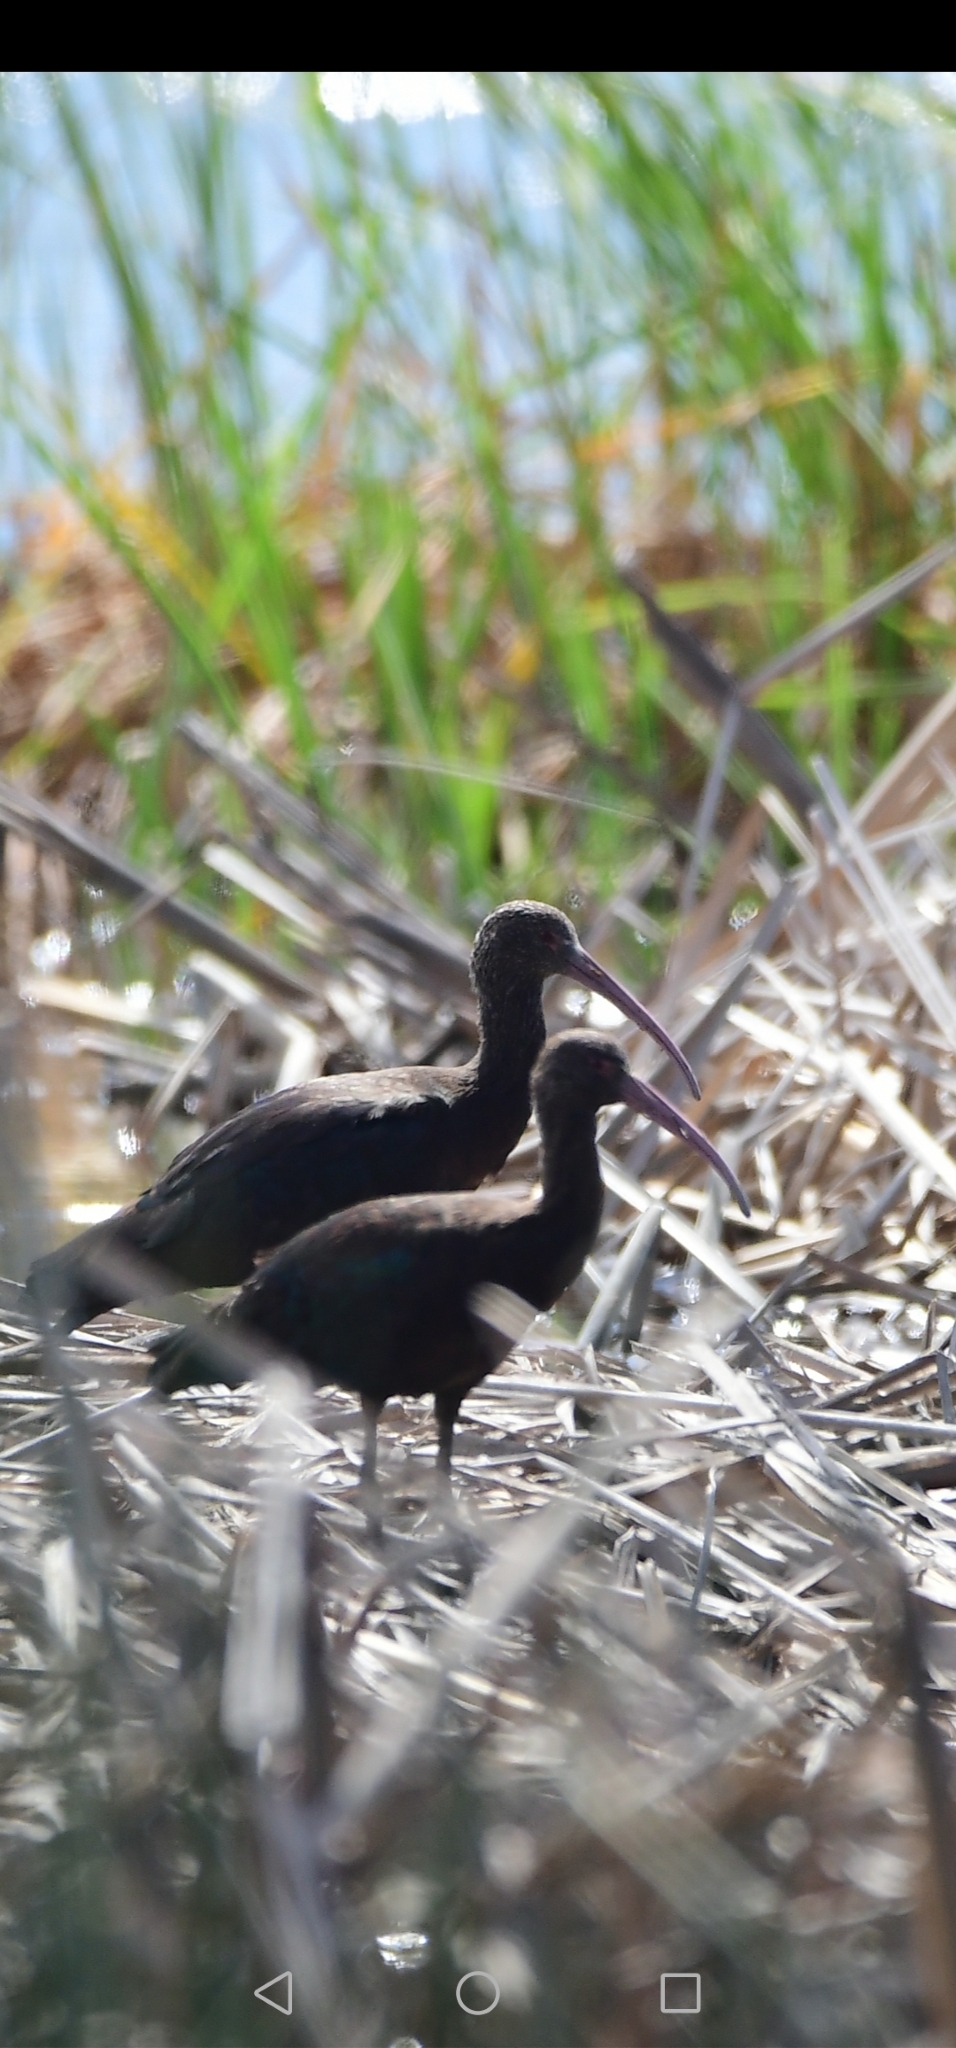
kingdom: Animalia
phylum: Chordata
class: Aves
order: Pelecaniformes
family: Threskiornithidae
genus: Plegadis
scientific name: Plegadis ridgwayi
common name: Puna ibis
